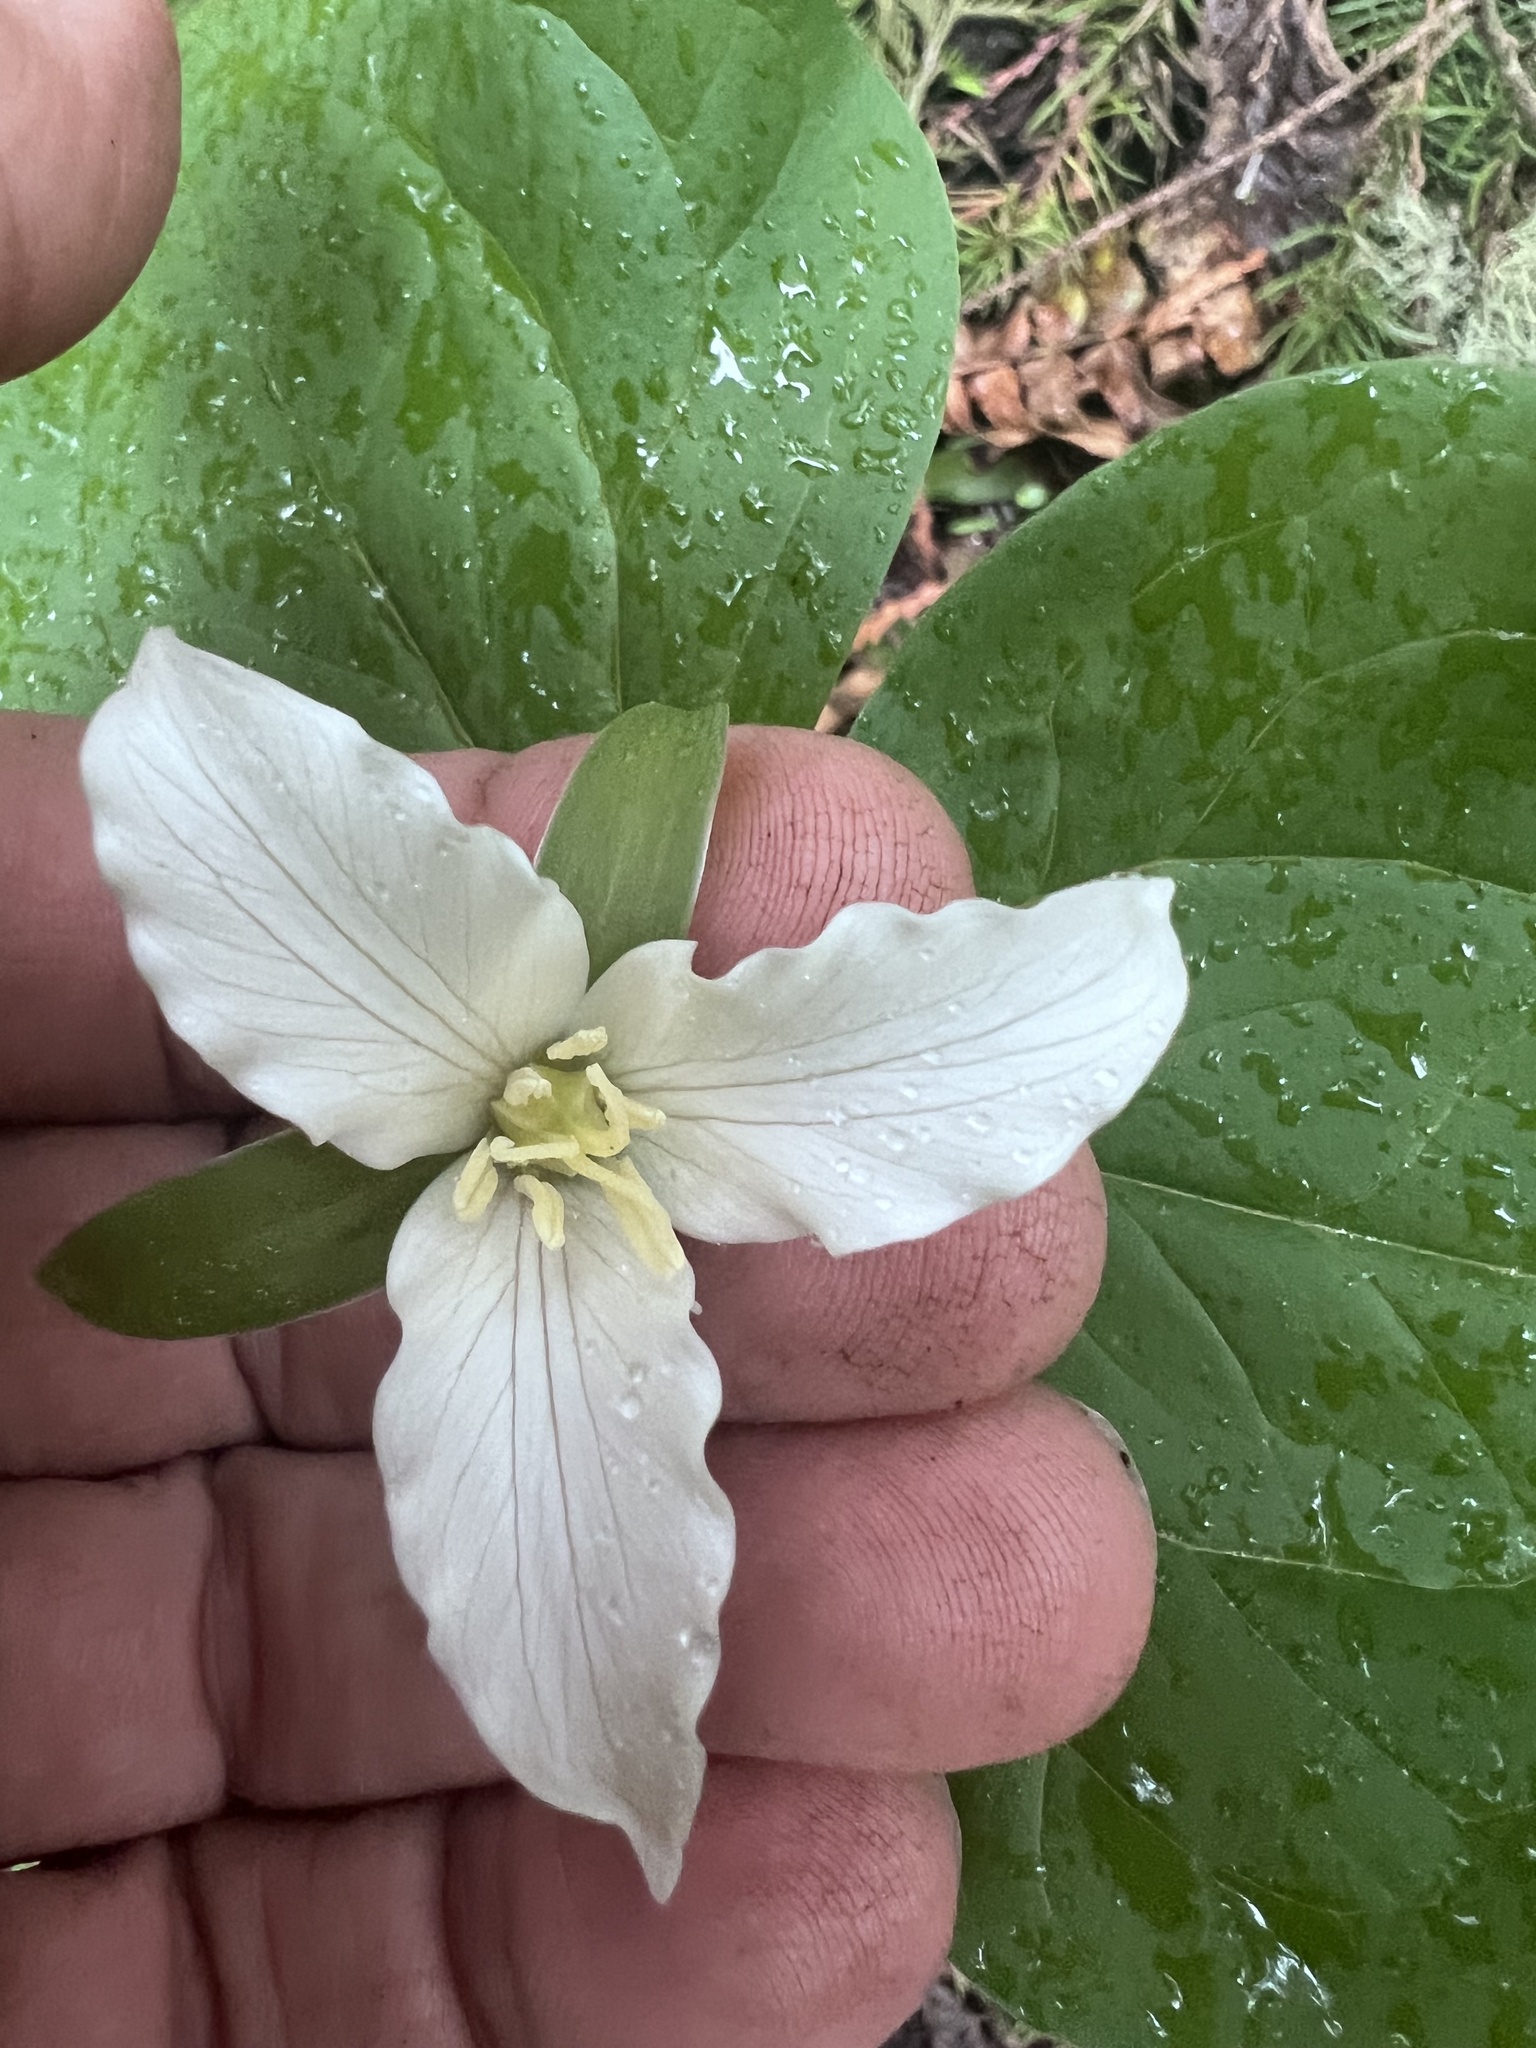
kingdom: Plantae
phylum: Tracheophyta
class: Liliopsida
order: Liliales
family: Melanthiaceae
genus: Trillium
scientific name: Trillium ovatum
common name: Pacific trillium
